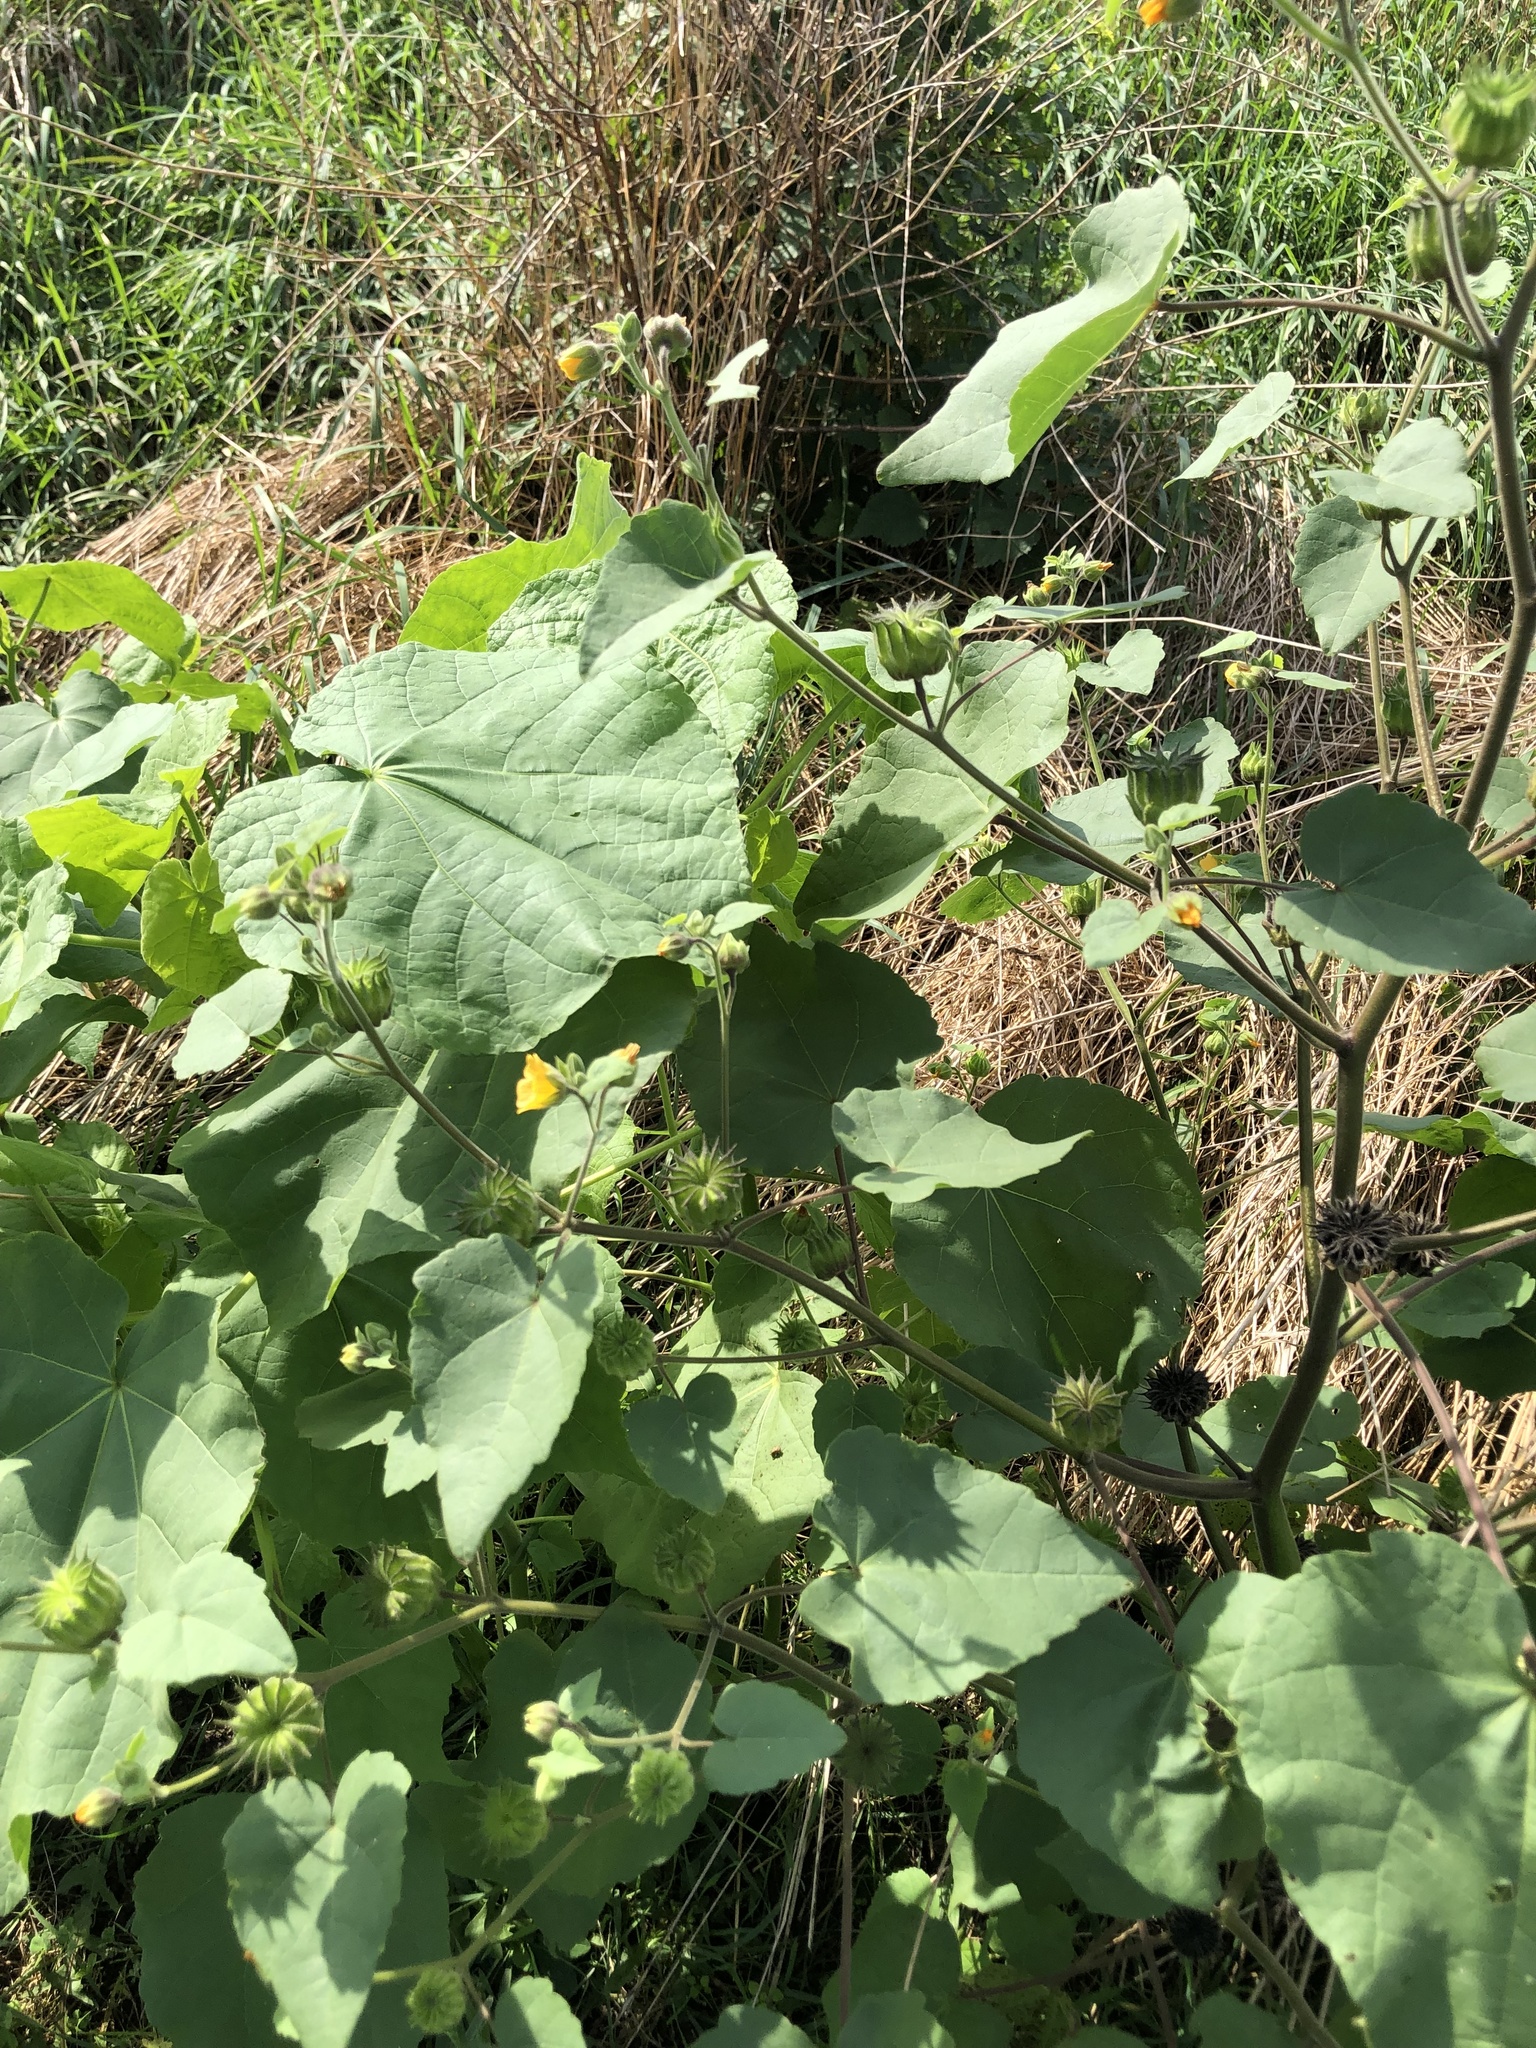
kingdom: Plantae
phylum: Tracheophyta
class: Magnoliopsida
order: Malvales
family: Malvaceae
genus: Abutilon
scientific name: Abutilon theophrasti
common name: Velvetleaf
